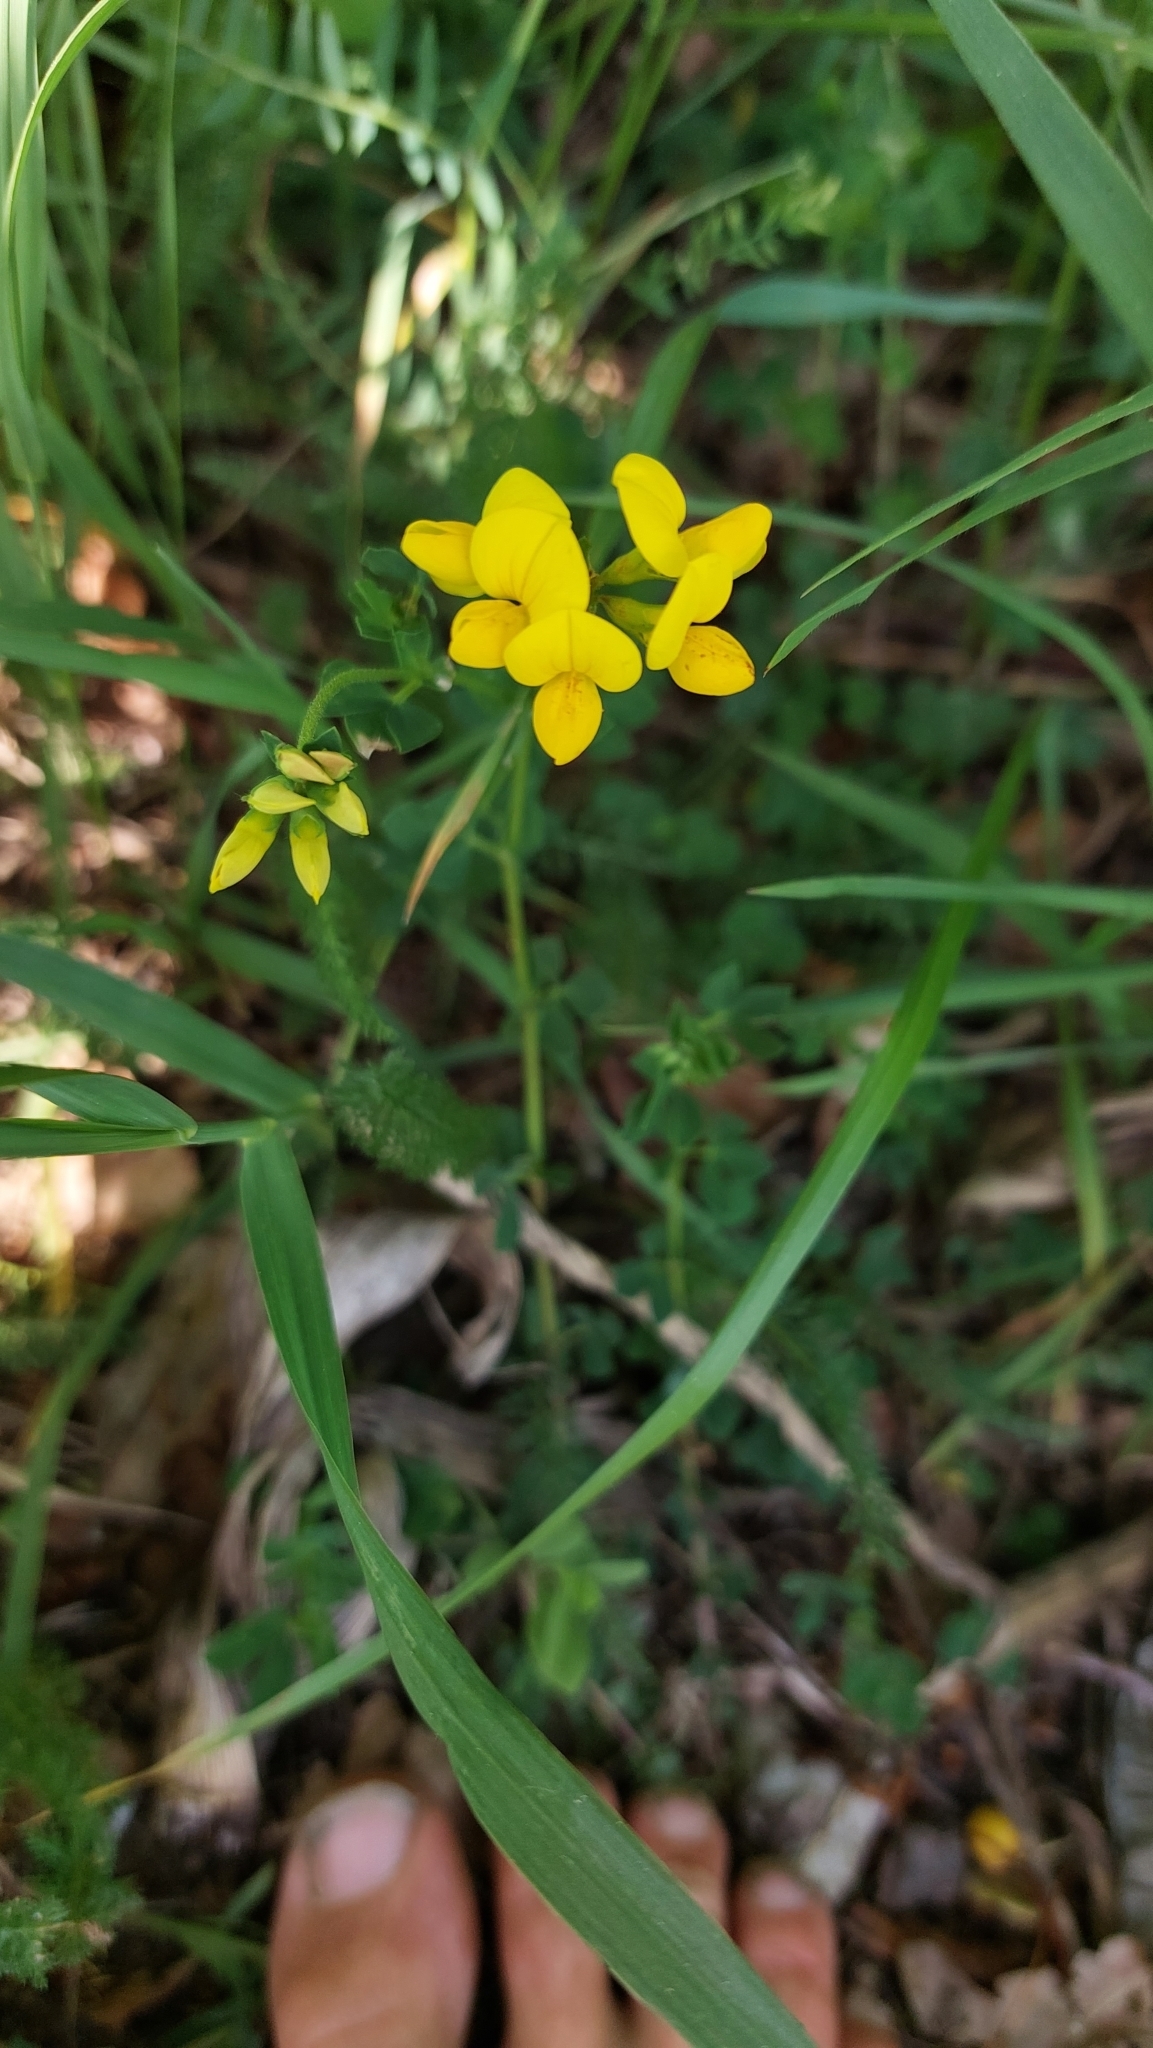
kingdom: Plantae
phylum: Tracheophyta
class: Magnoliopsida
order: Fabales
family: Fabaceae
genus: Lotus
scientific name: Lotus corniculatus
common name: Common bird's-foot-trefoil
